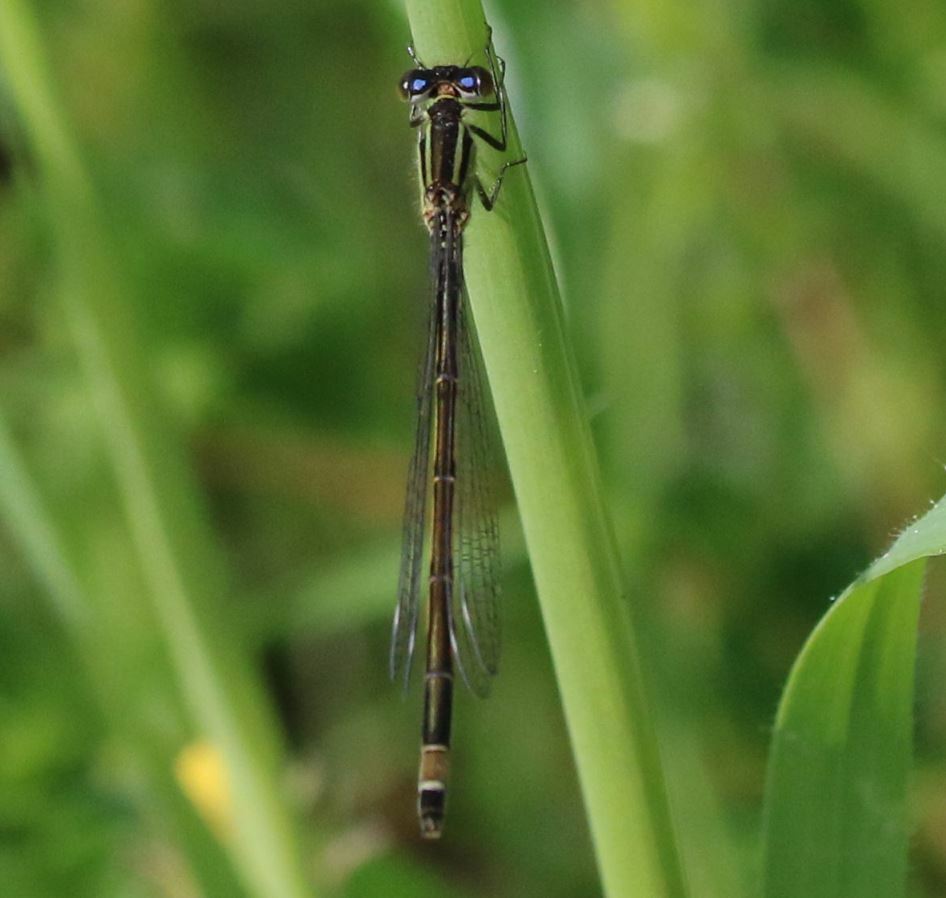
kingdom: Animalia
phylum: Arthropoda
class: Insecta
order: Odonata
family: Coenagrionidae
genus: Ischnura
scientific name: Ischnura elegans
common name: Blue-tailed damselfly
